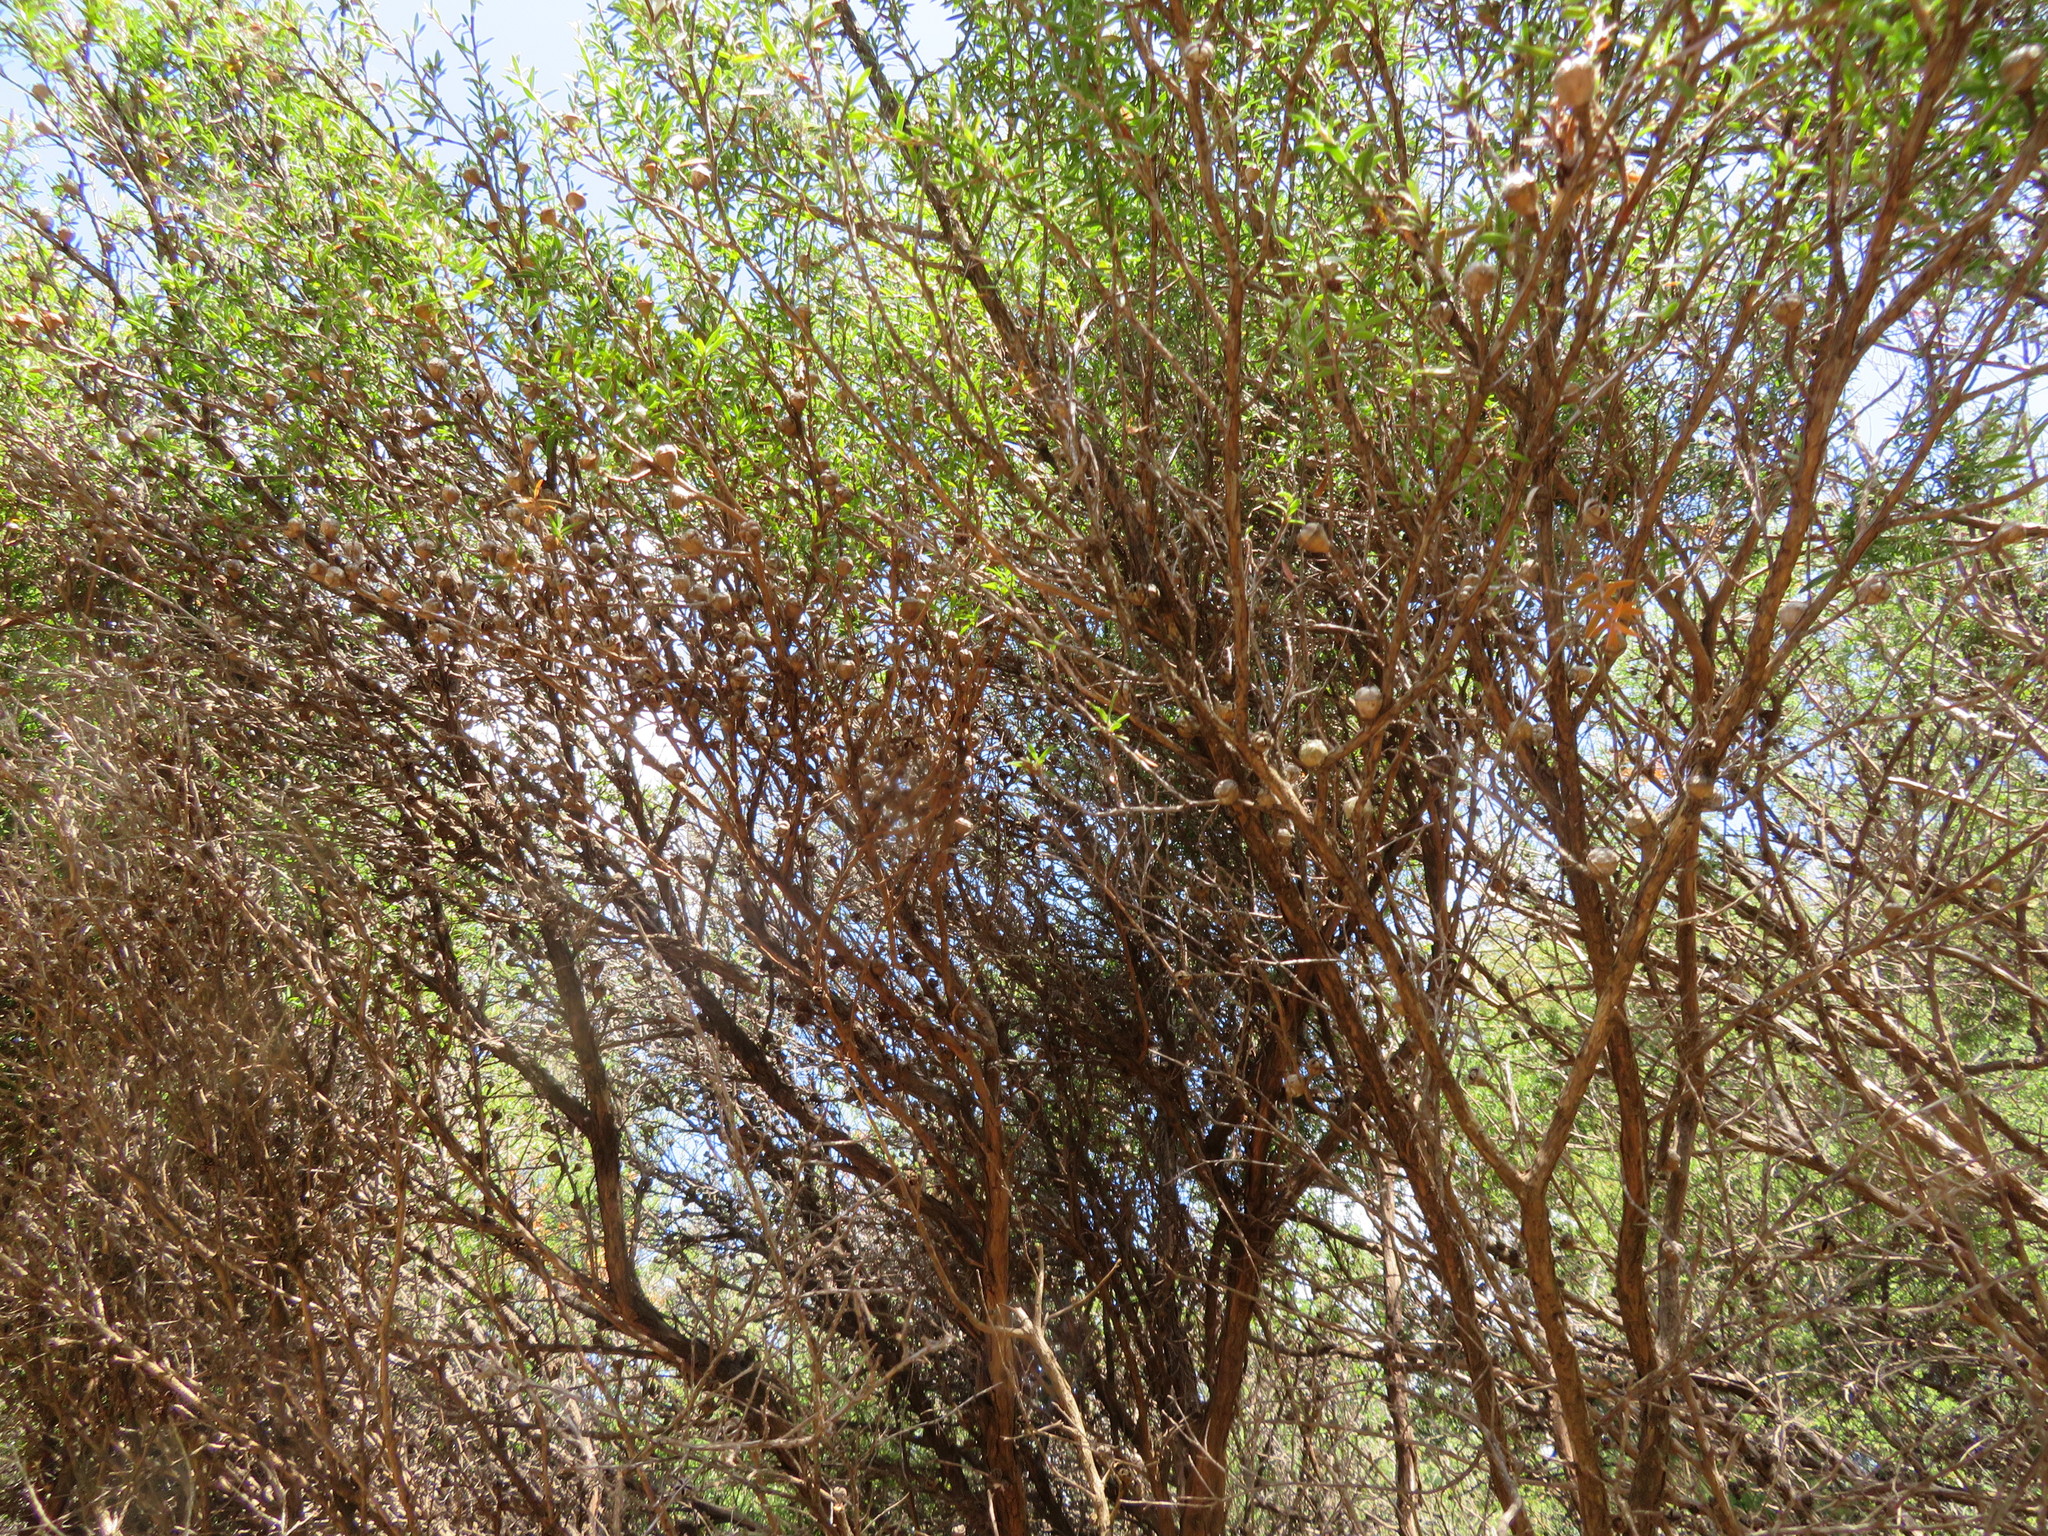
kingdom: Plantae
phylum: Tracheophyta
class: Magnoliopsida
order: Myrtales
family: Myrtaceae
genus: Leptospermum
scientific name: Leptospermum scoparium
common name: Broom tea-tree
